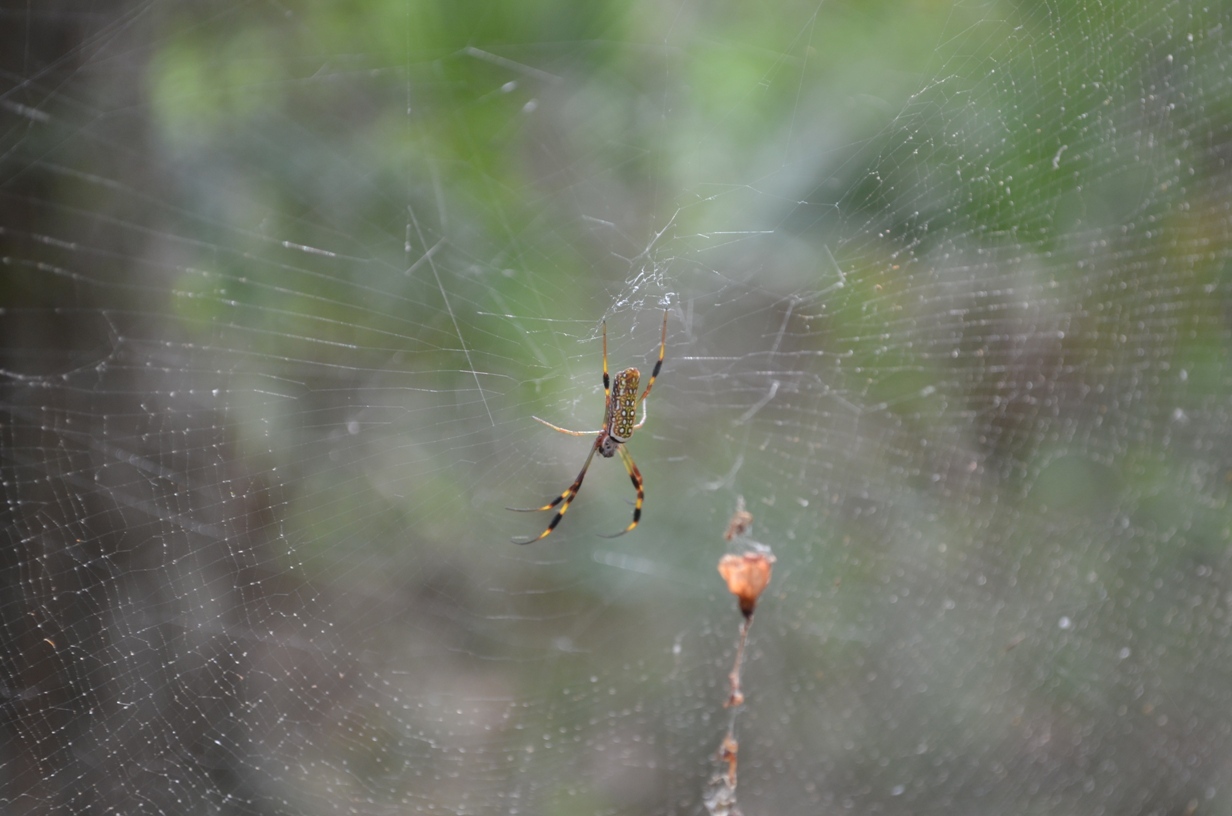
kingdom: Animalia
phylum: Arthropoda
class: Arachnida
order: Araneae
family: Araneidae
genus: Trichonephila
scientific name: Trichonephila clavipes
